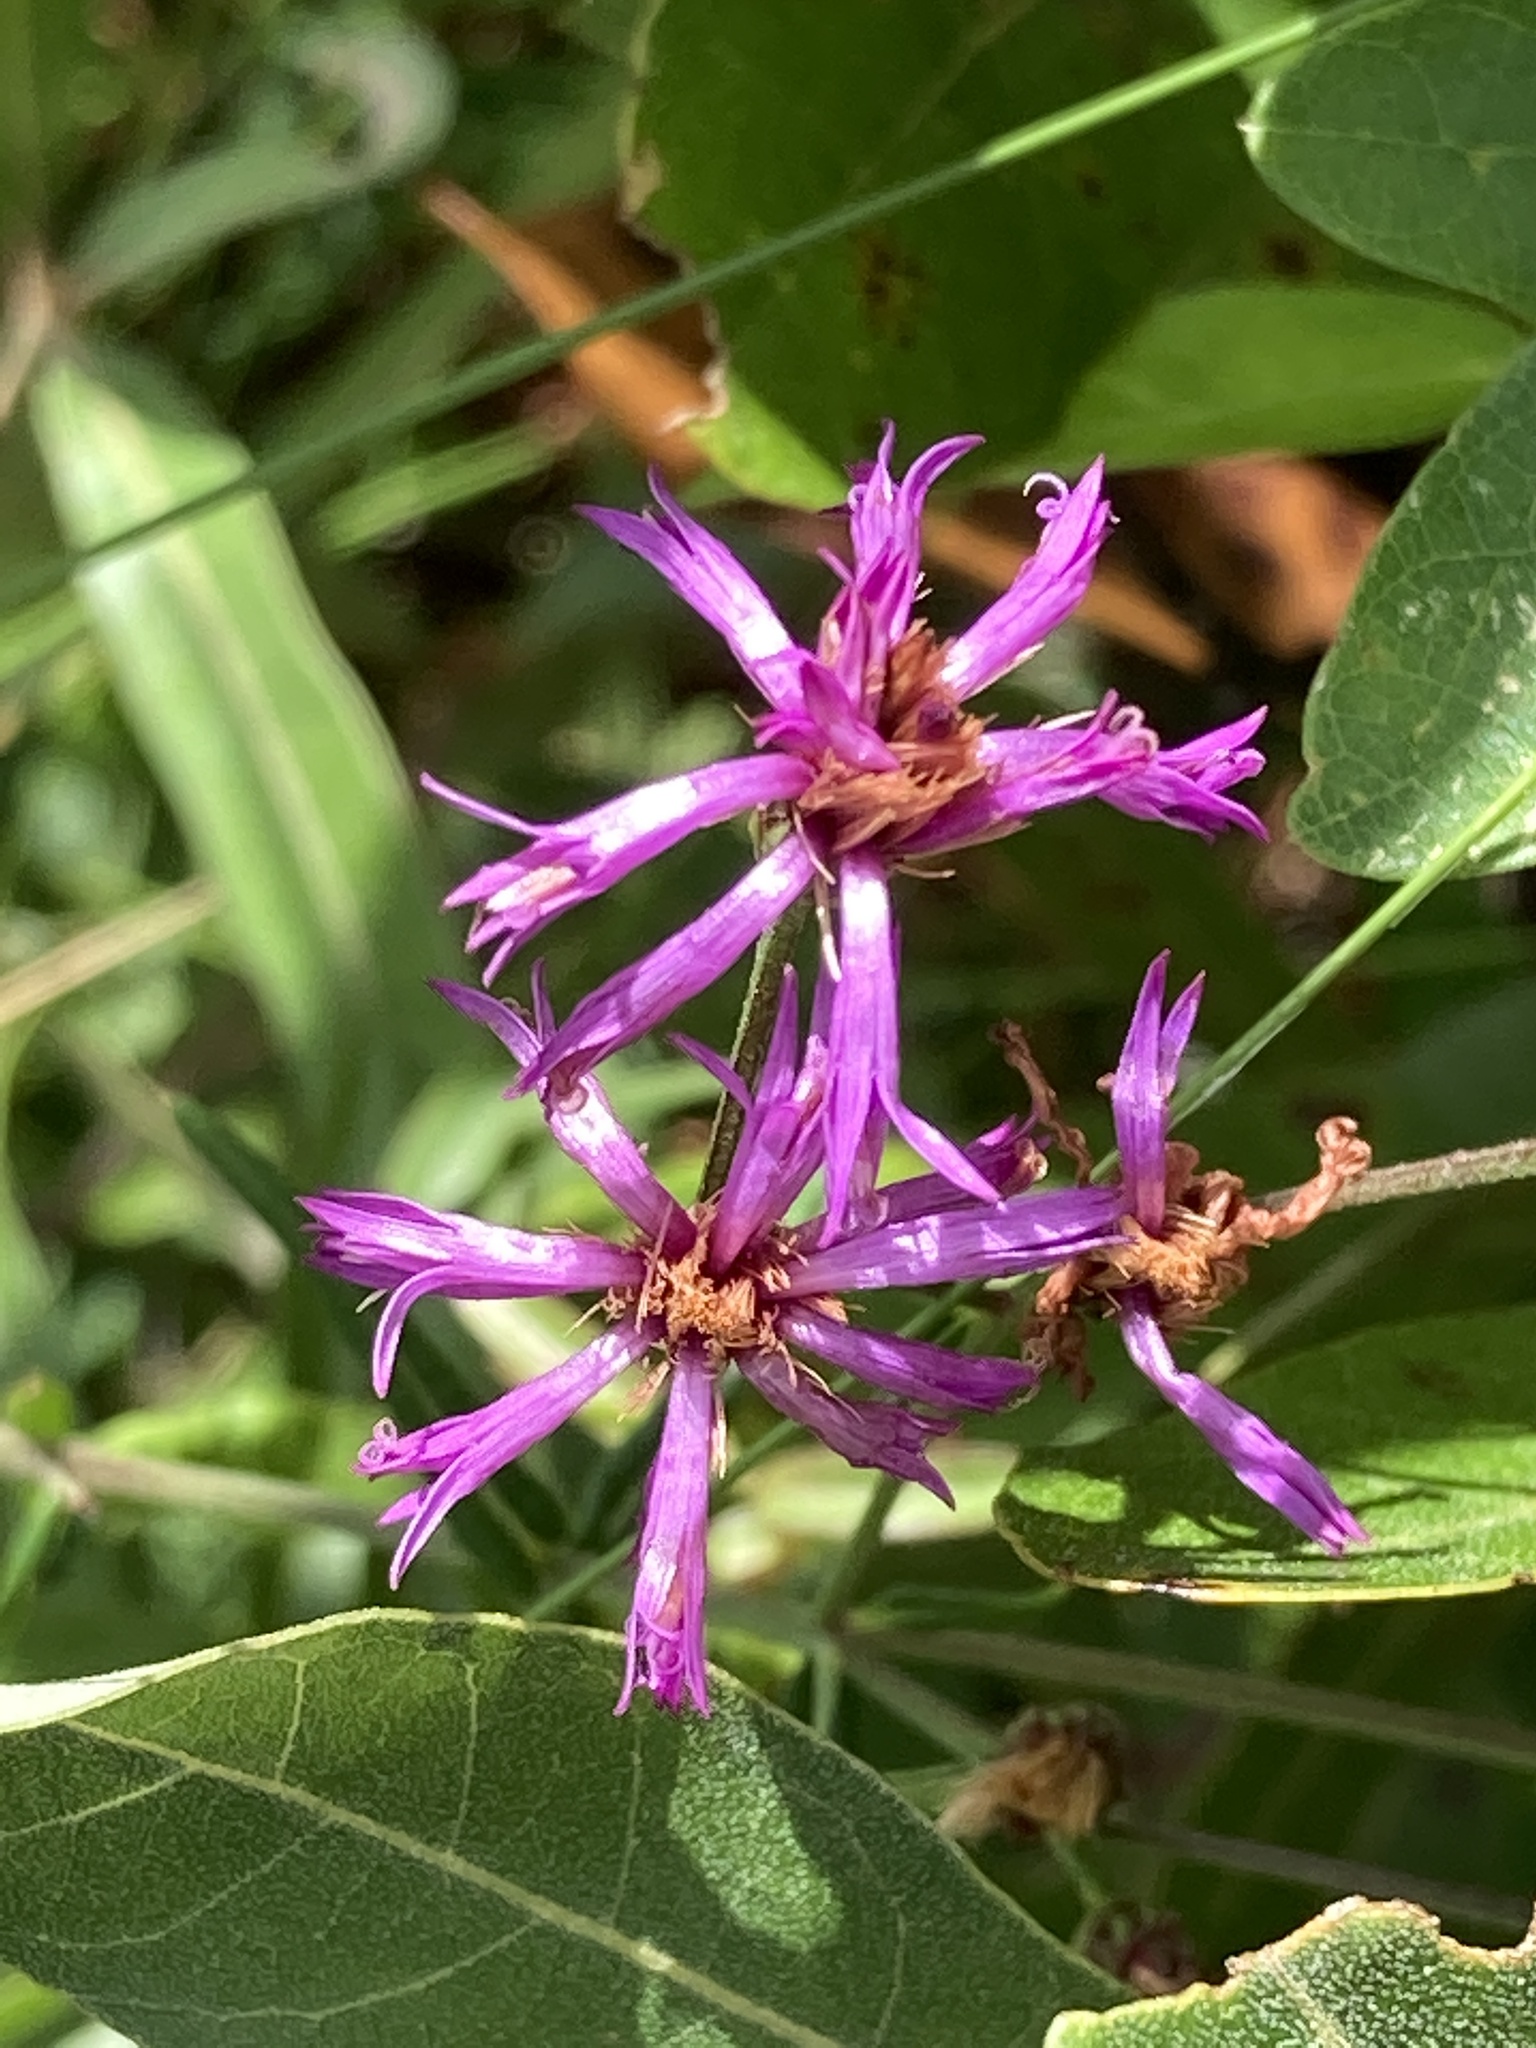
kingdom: Plantae
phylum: Tracheophyta
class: Magnoliopsida
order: Asterales
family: Asteraceae
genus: Vernonia
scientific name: Vernonia angustifolia
